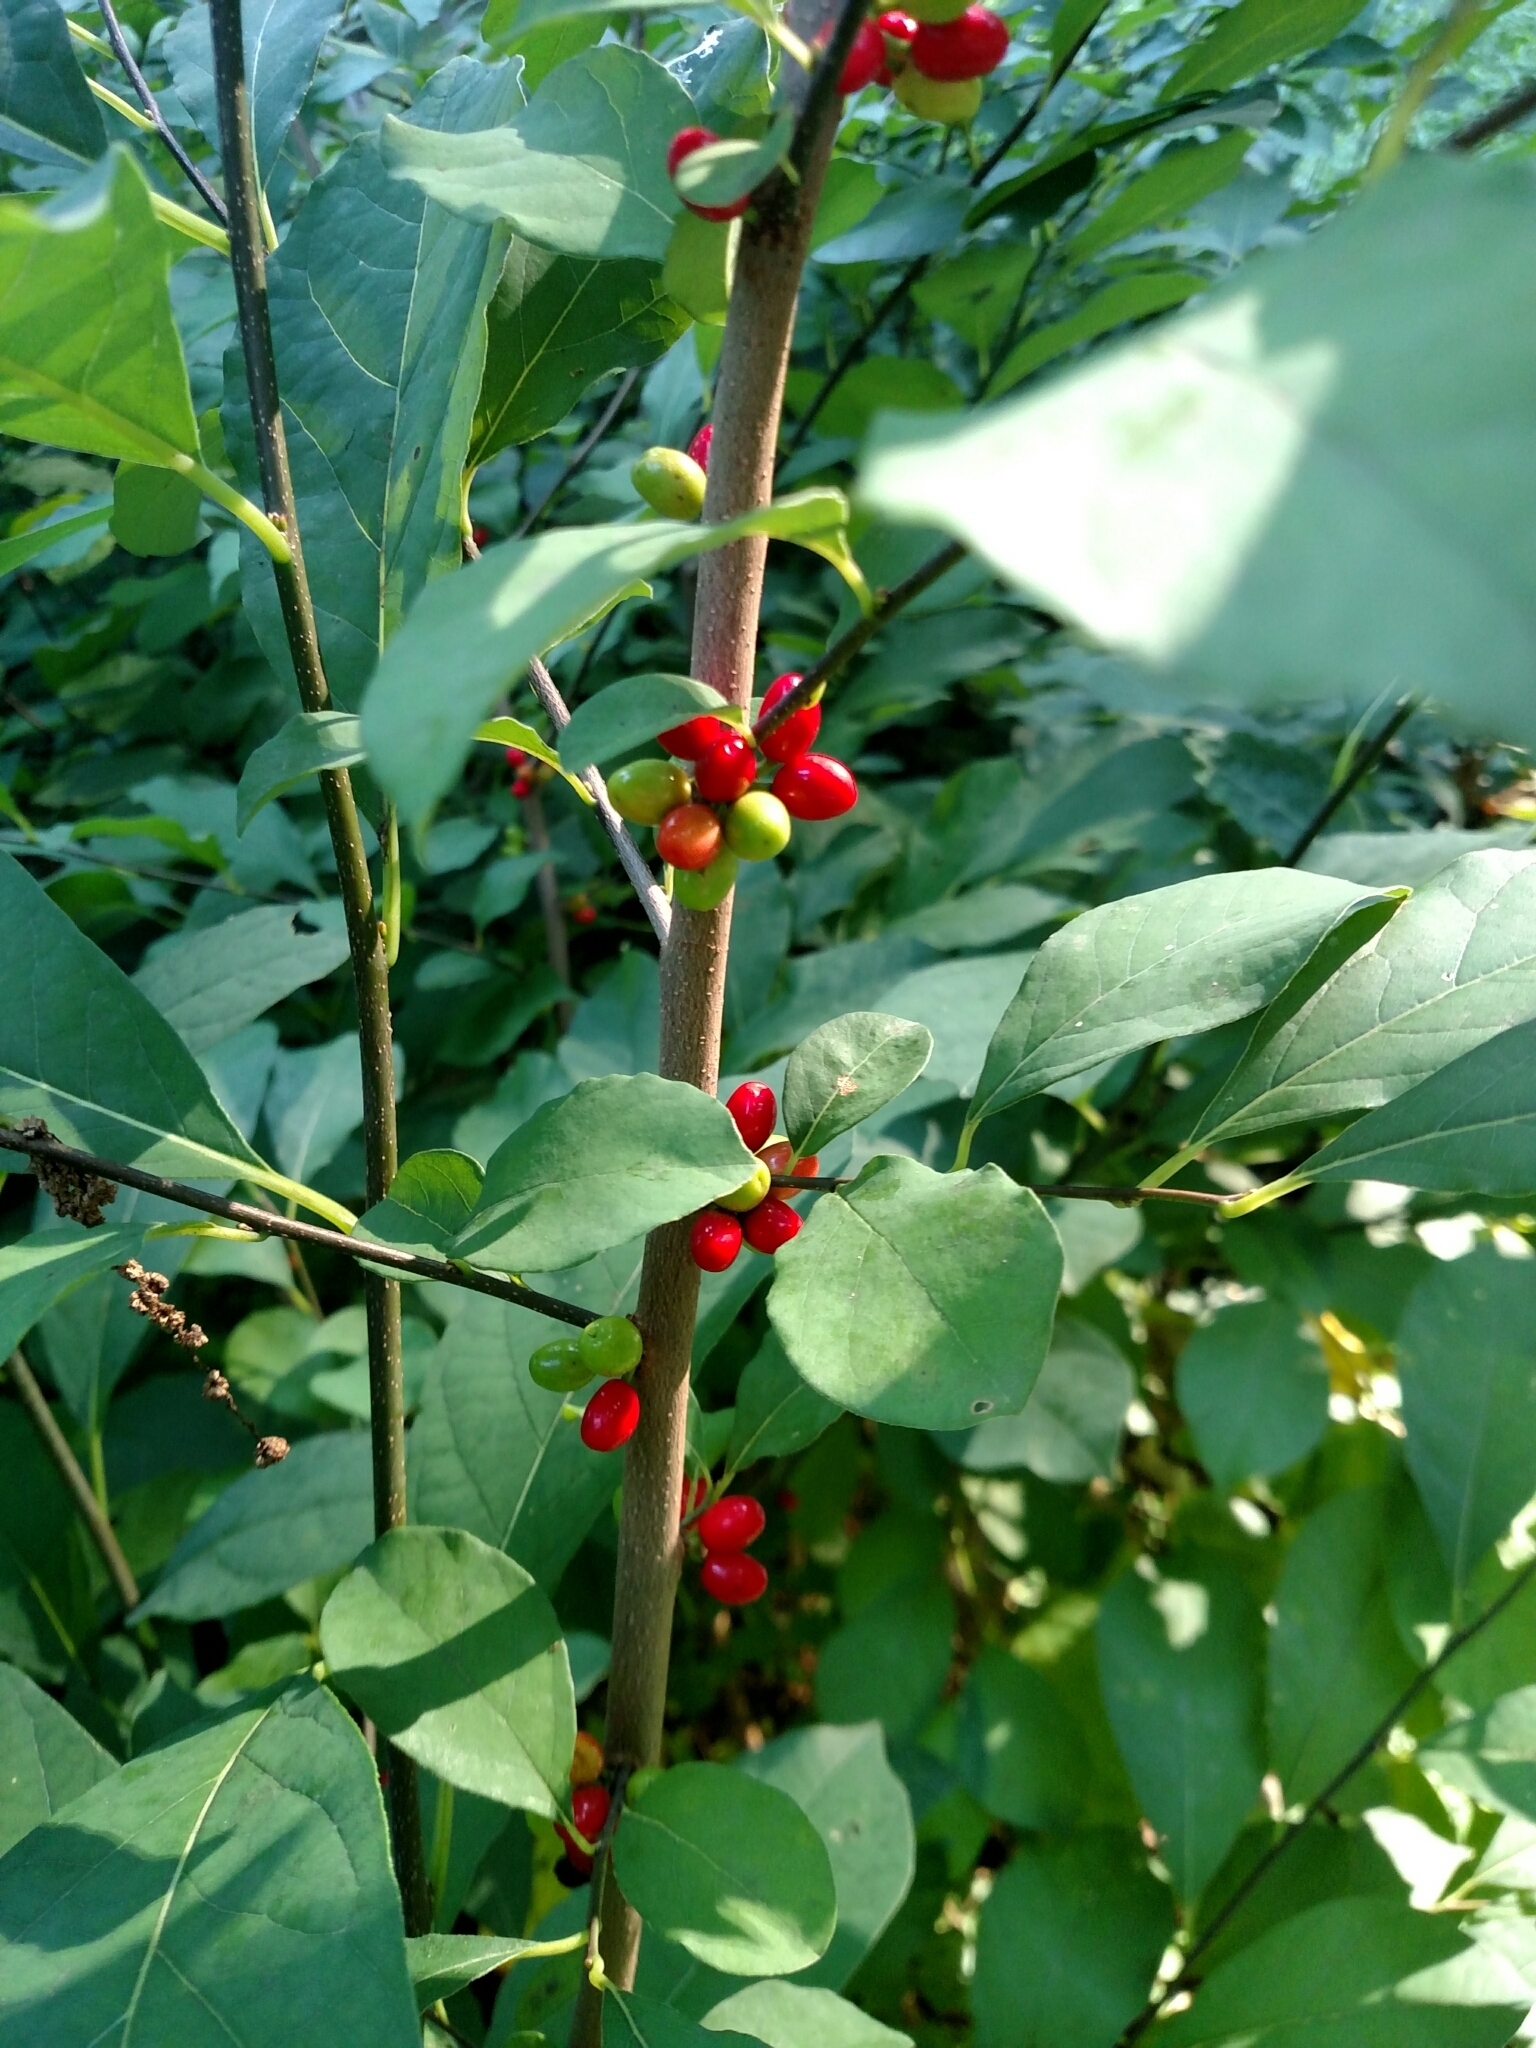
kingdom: Plantae
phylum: Tracheophyta
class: Magnoliopsida
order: Laurales
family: Lauraceae
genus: Lindera
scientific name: Lindera benzoin
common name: Spicebush
